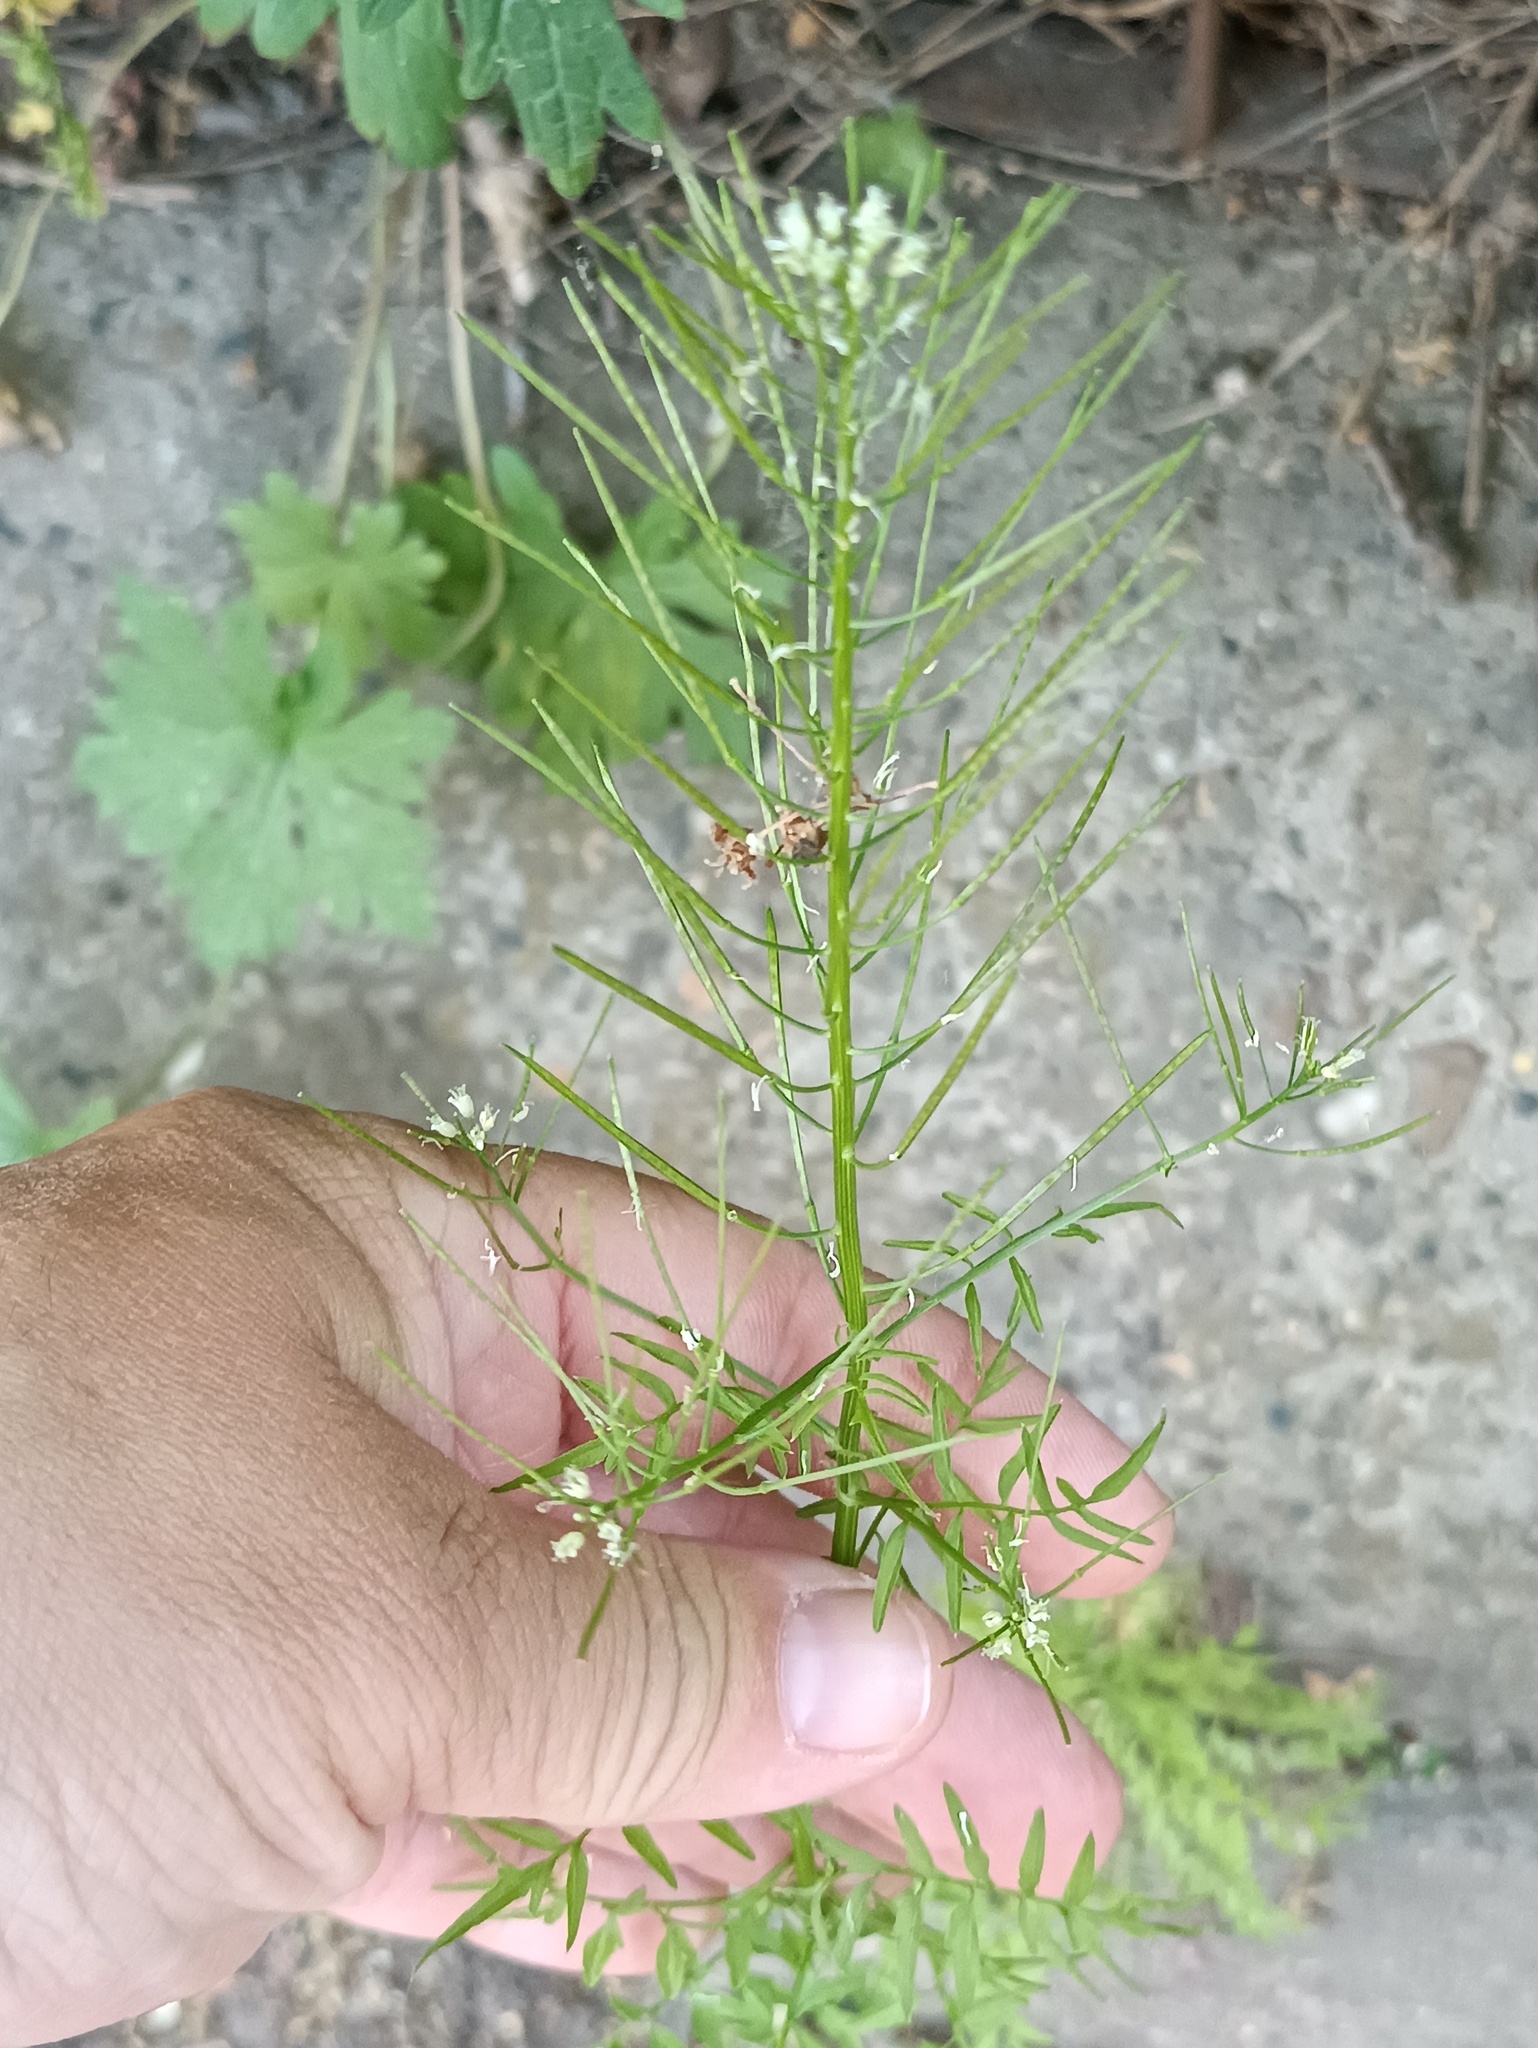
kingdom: Plantae
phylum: Tracheophyta
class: Magnoliopsida
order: Brassicales
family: Brassicaceae
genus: Cardamine
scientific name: Cardamine impatiens
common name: Narrow-leaved bitter-cress
